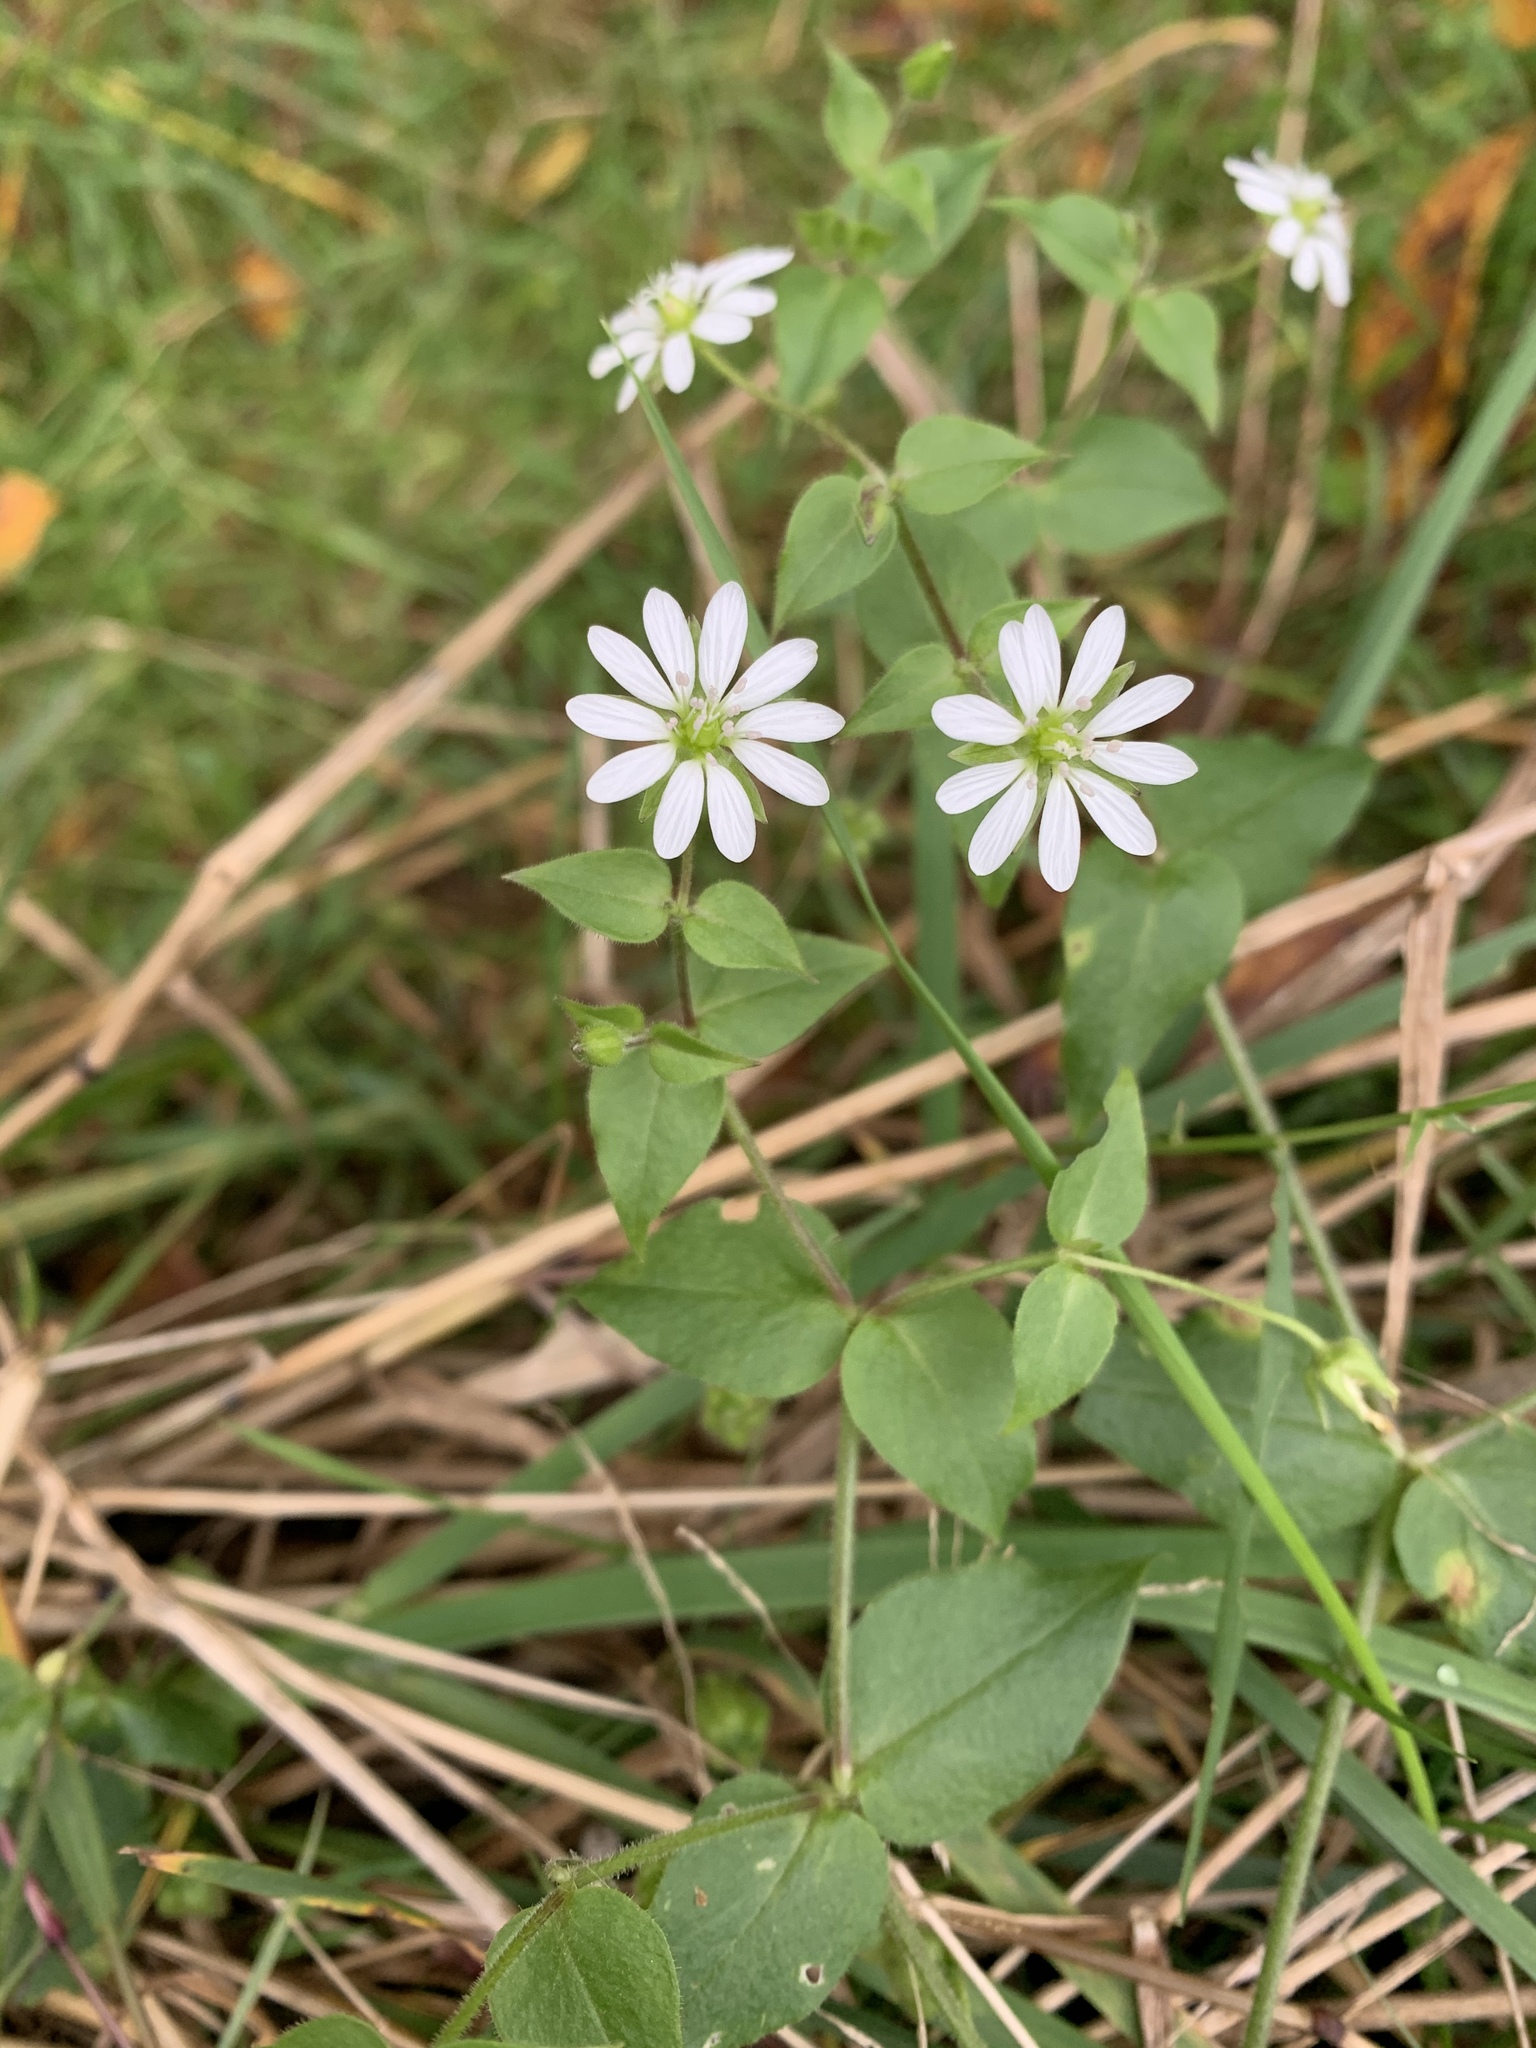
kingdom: Plantae
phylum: Tracheophyta
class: Magnoliopsida
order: Caryophyllales
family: Caryophyllaceae
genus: Stellaria
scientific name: Stellaria aquatica
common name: Water chickweed
